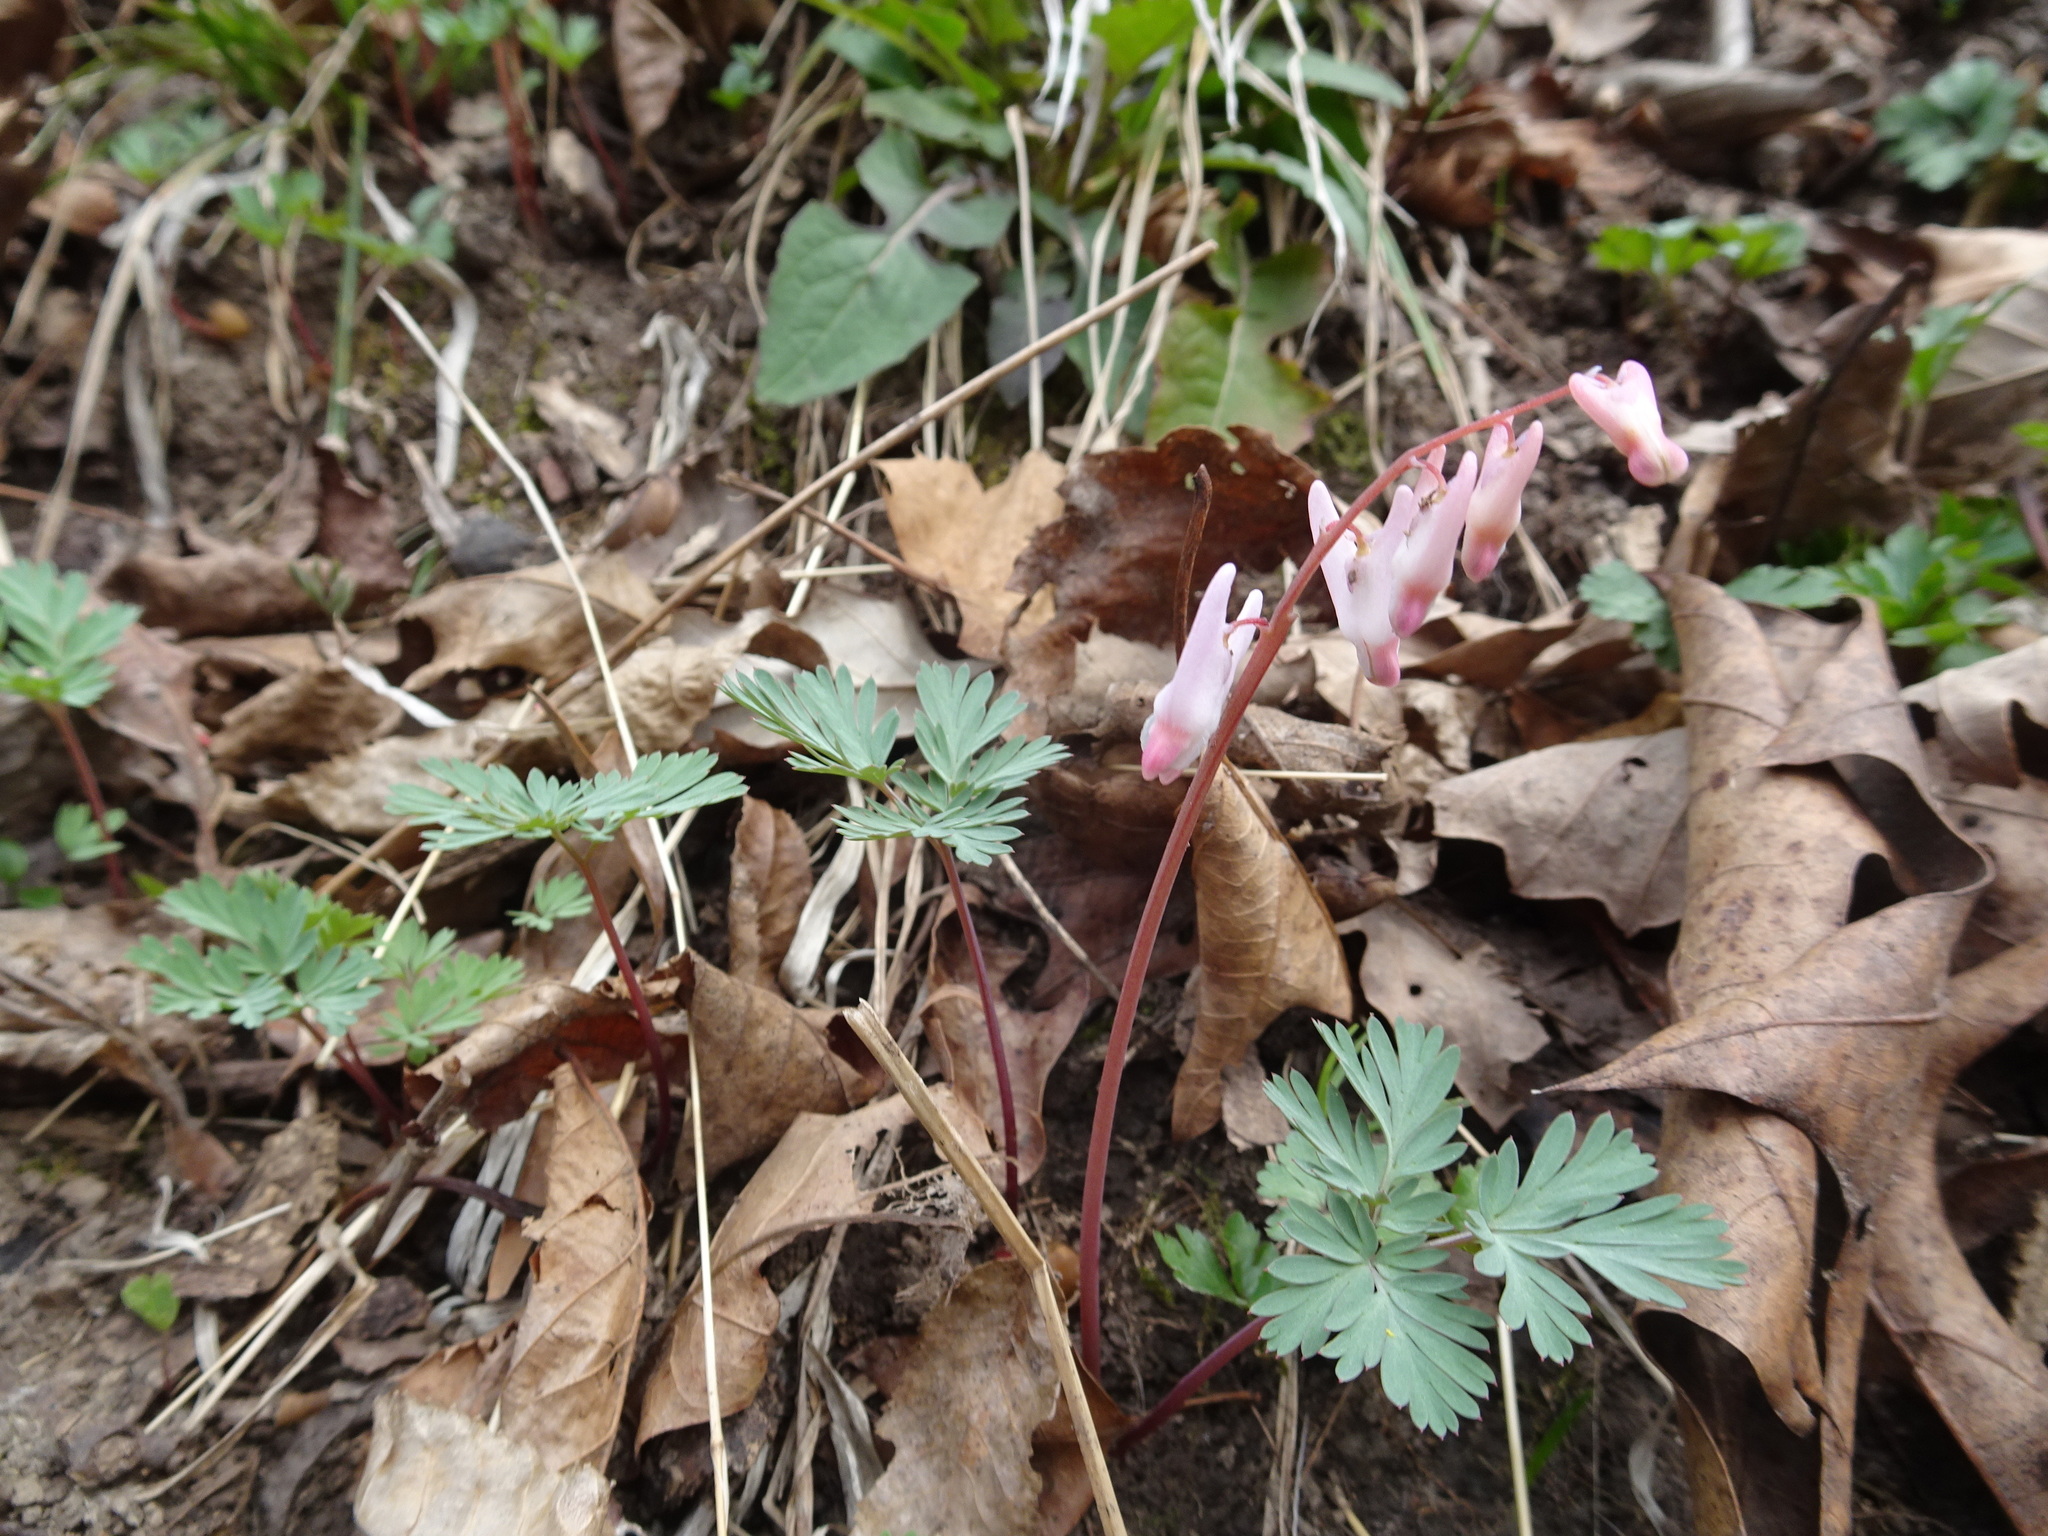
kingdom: Plantae
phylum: Tracheophyta
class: Magnoliopsida
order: Ranunculales
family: Papaveraceae
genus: Dicentra
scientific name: Dicentra cucullaria
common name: Dutchman's breeches
